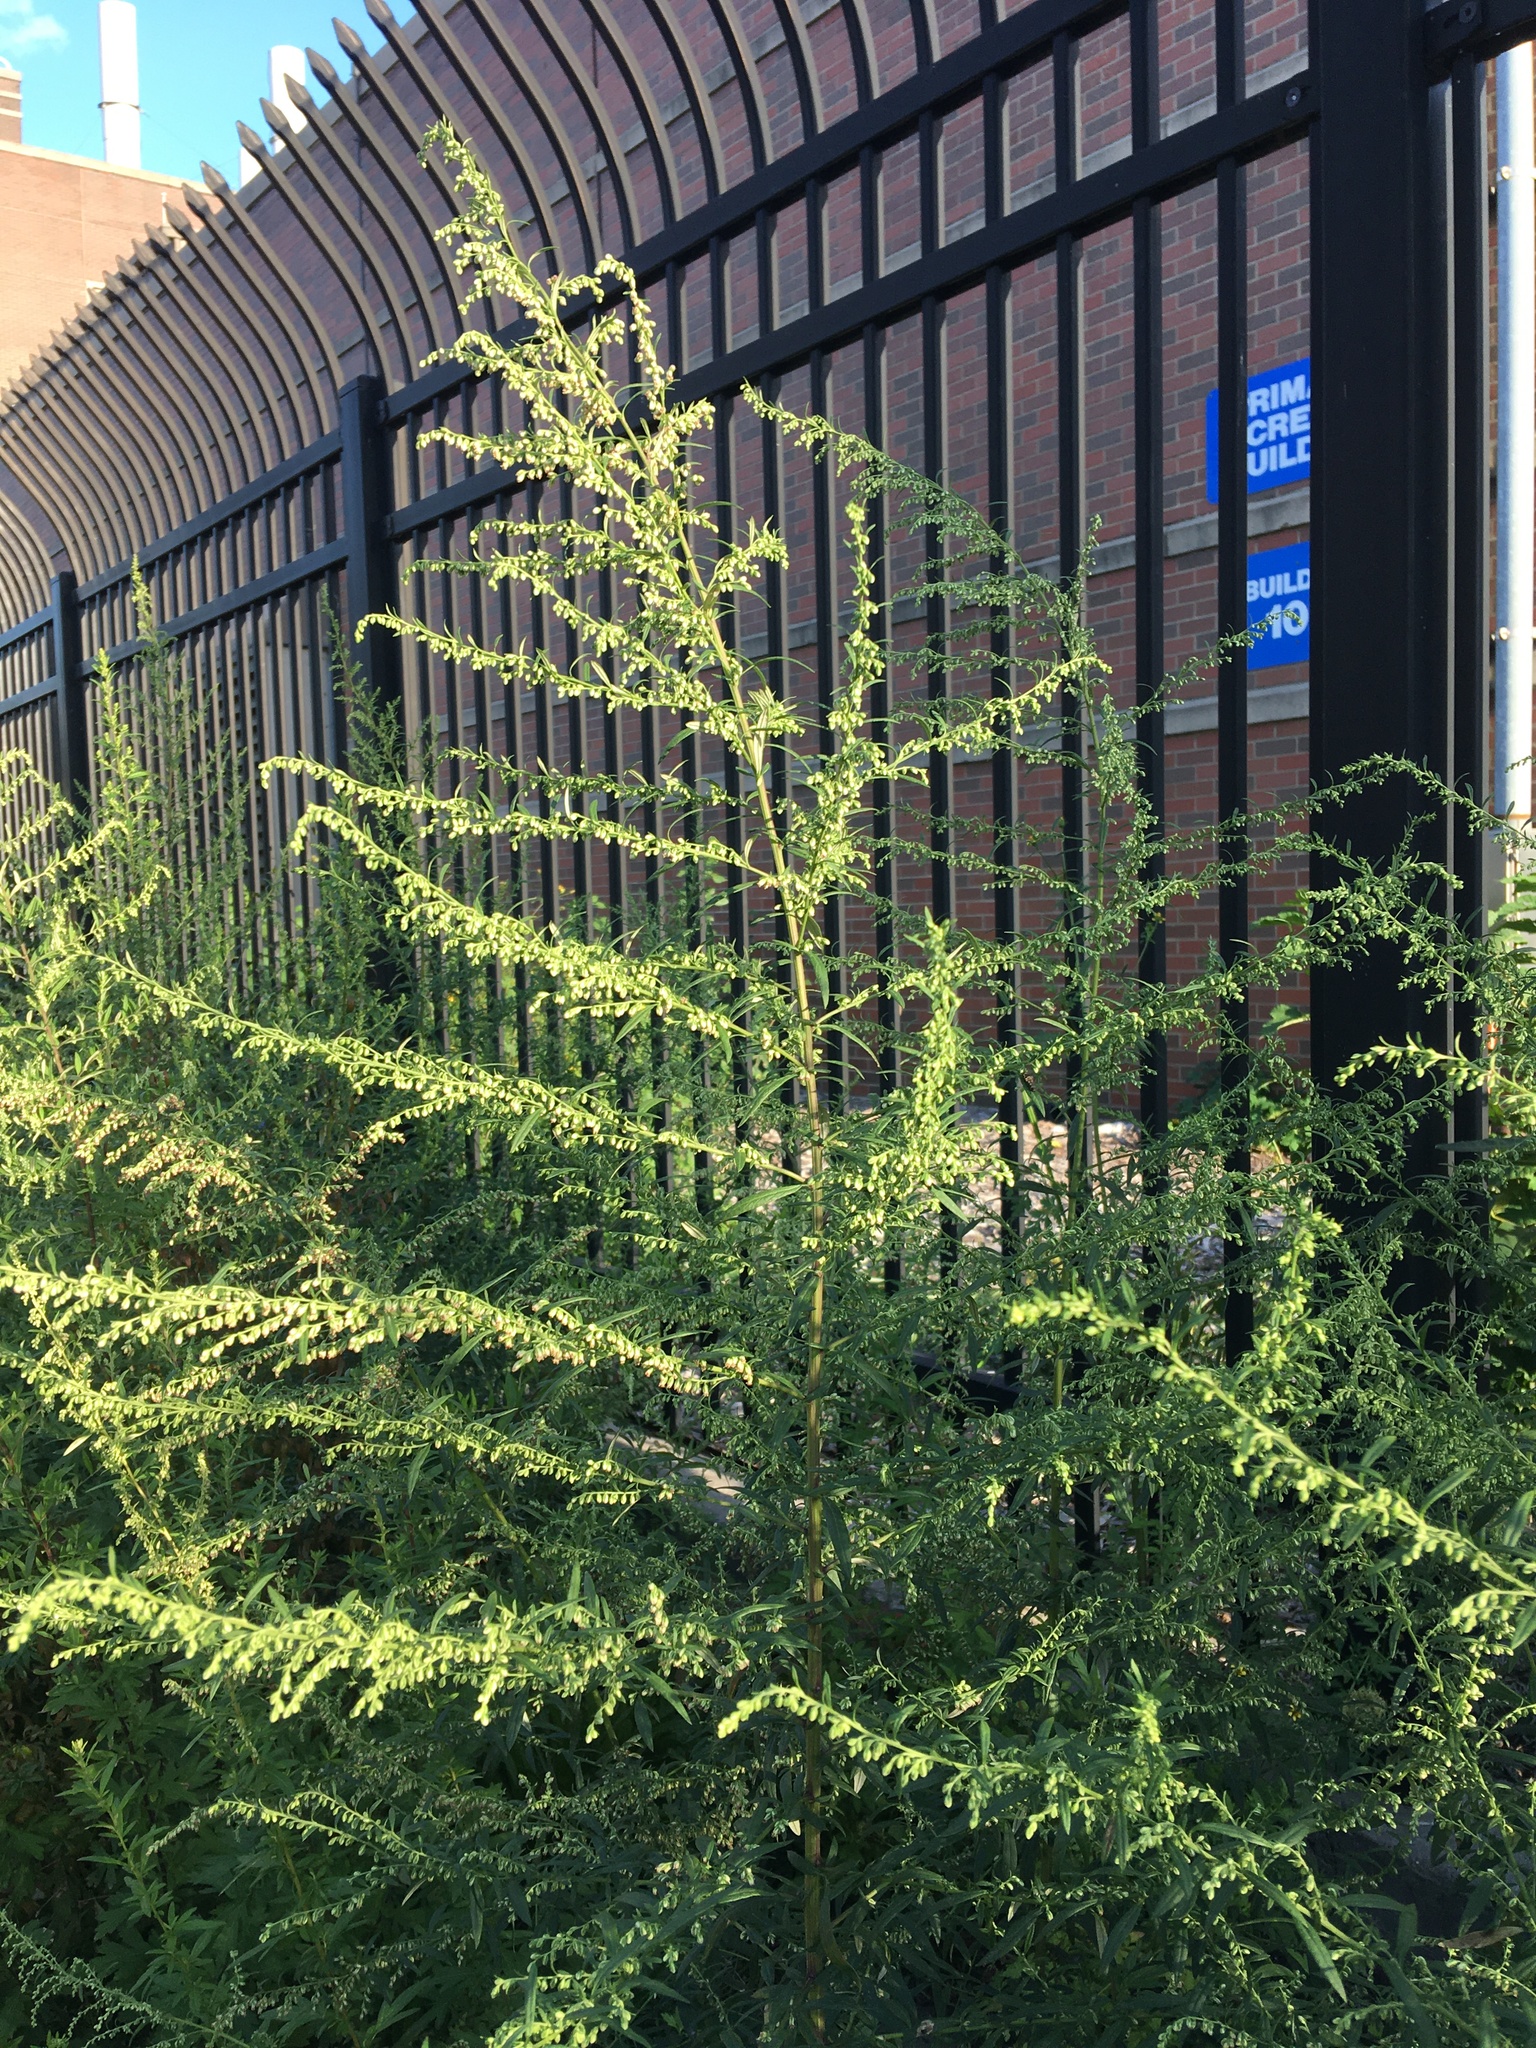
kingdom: Plantae
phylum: Tracheophyta
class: Magnoliopsida
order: Asterales
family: Asteraceae
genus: Artemisia
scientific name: Artemisia vulgaris
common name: Mugwort
